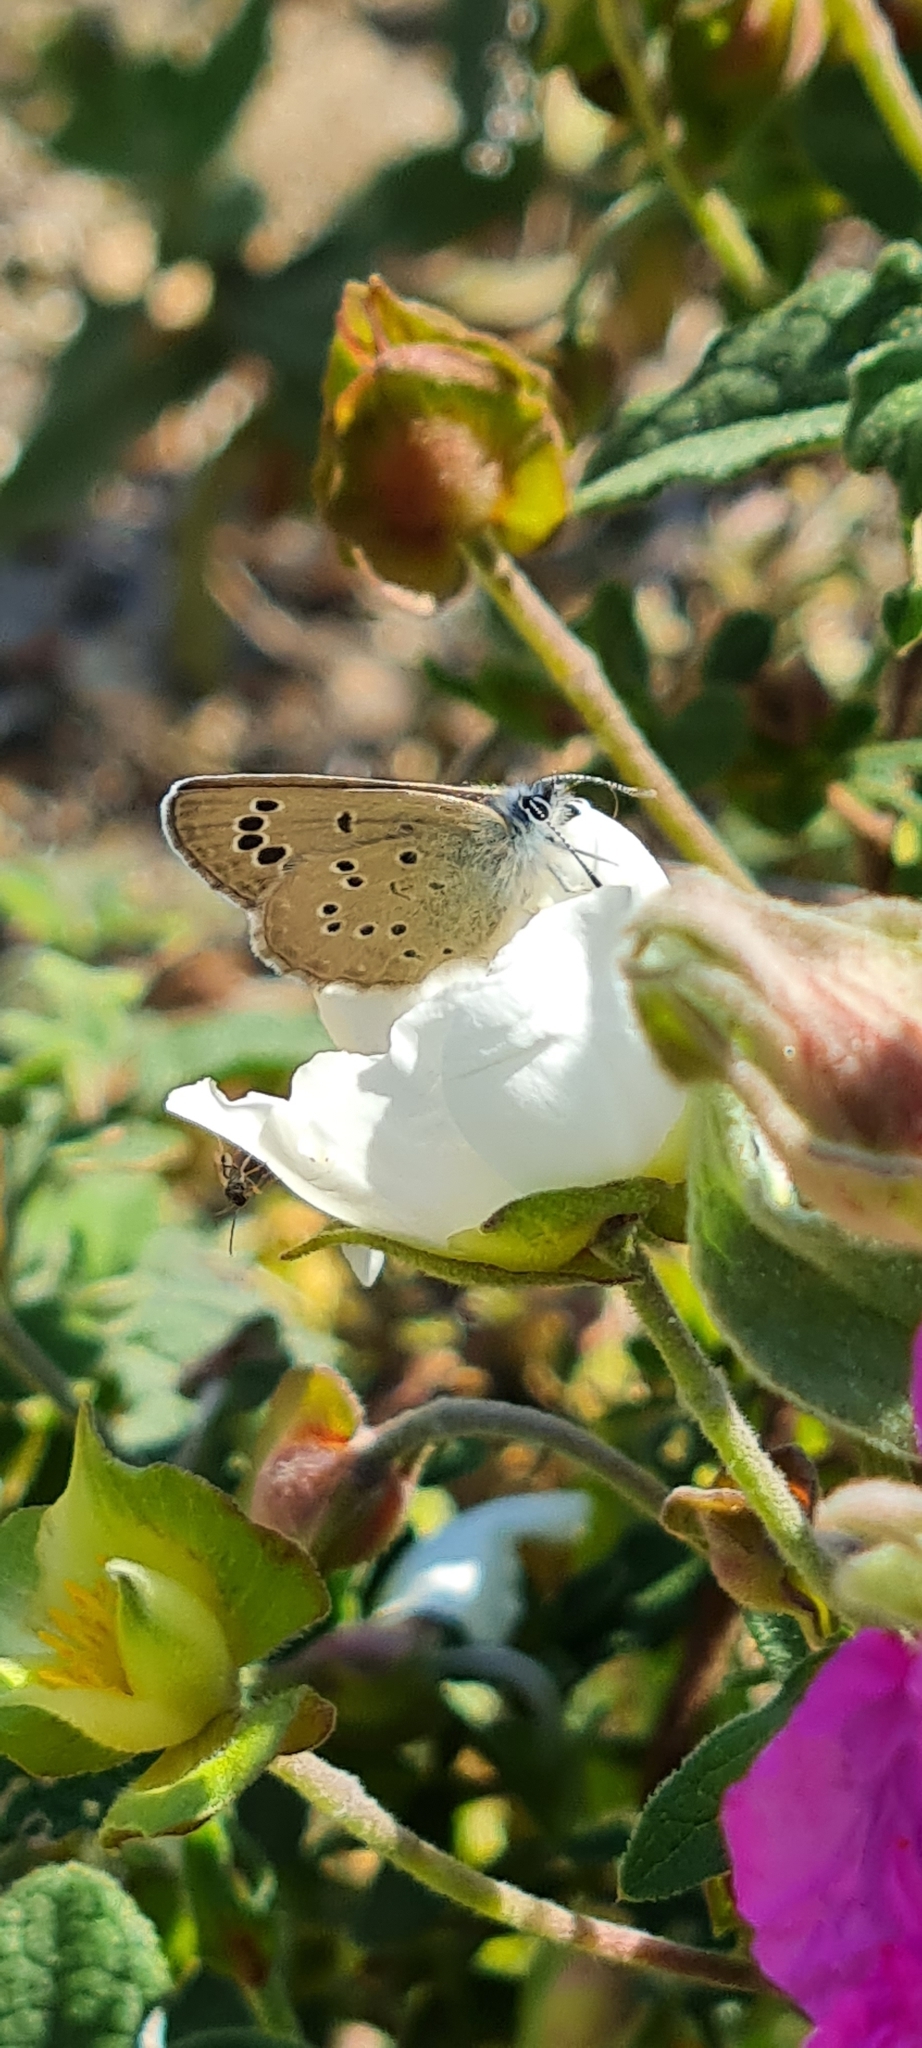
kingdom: Animalia
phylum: Arthropoda
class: Insecta
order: Lepidoptera
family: Lycaenidae
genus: Glaucopsyche
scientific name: Glaucopsyche melanops
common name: Black-eyed blue
